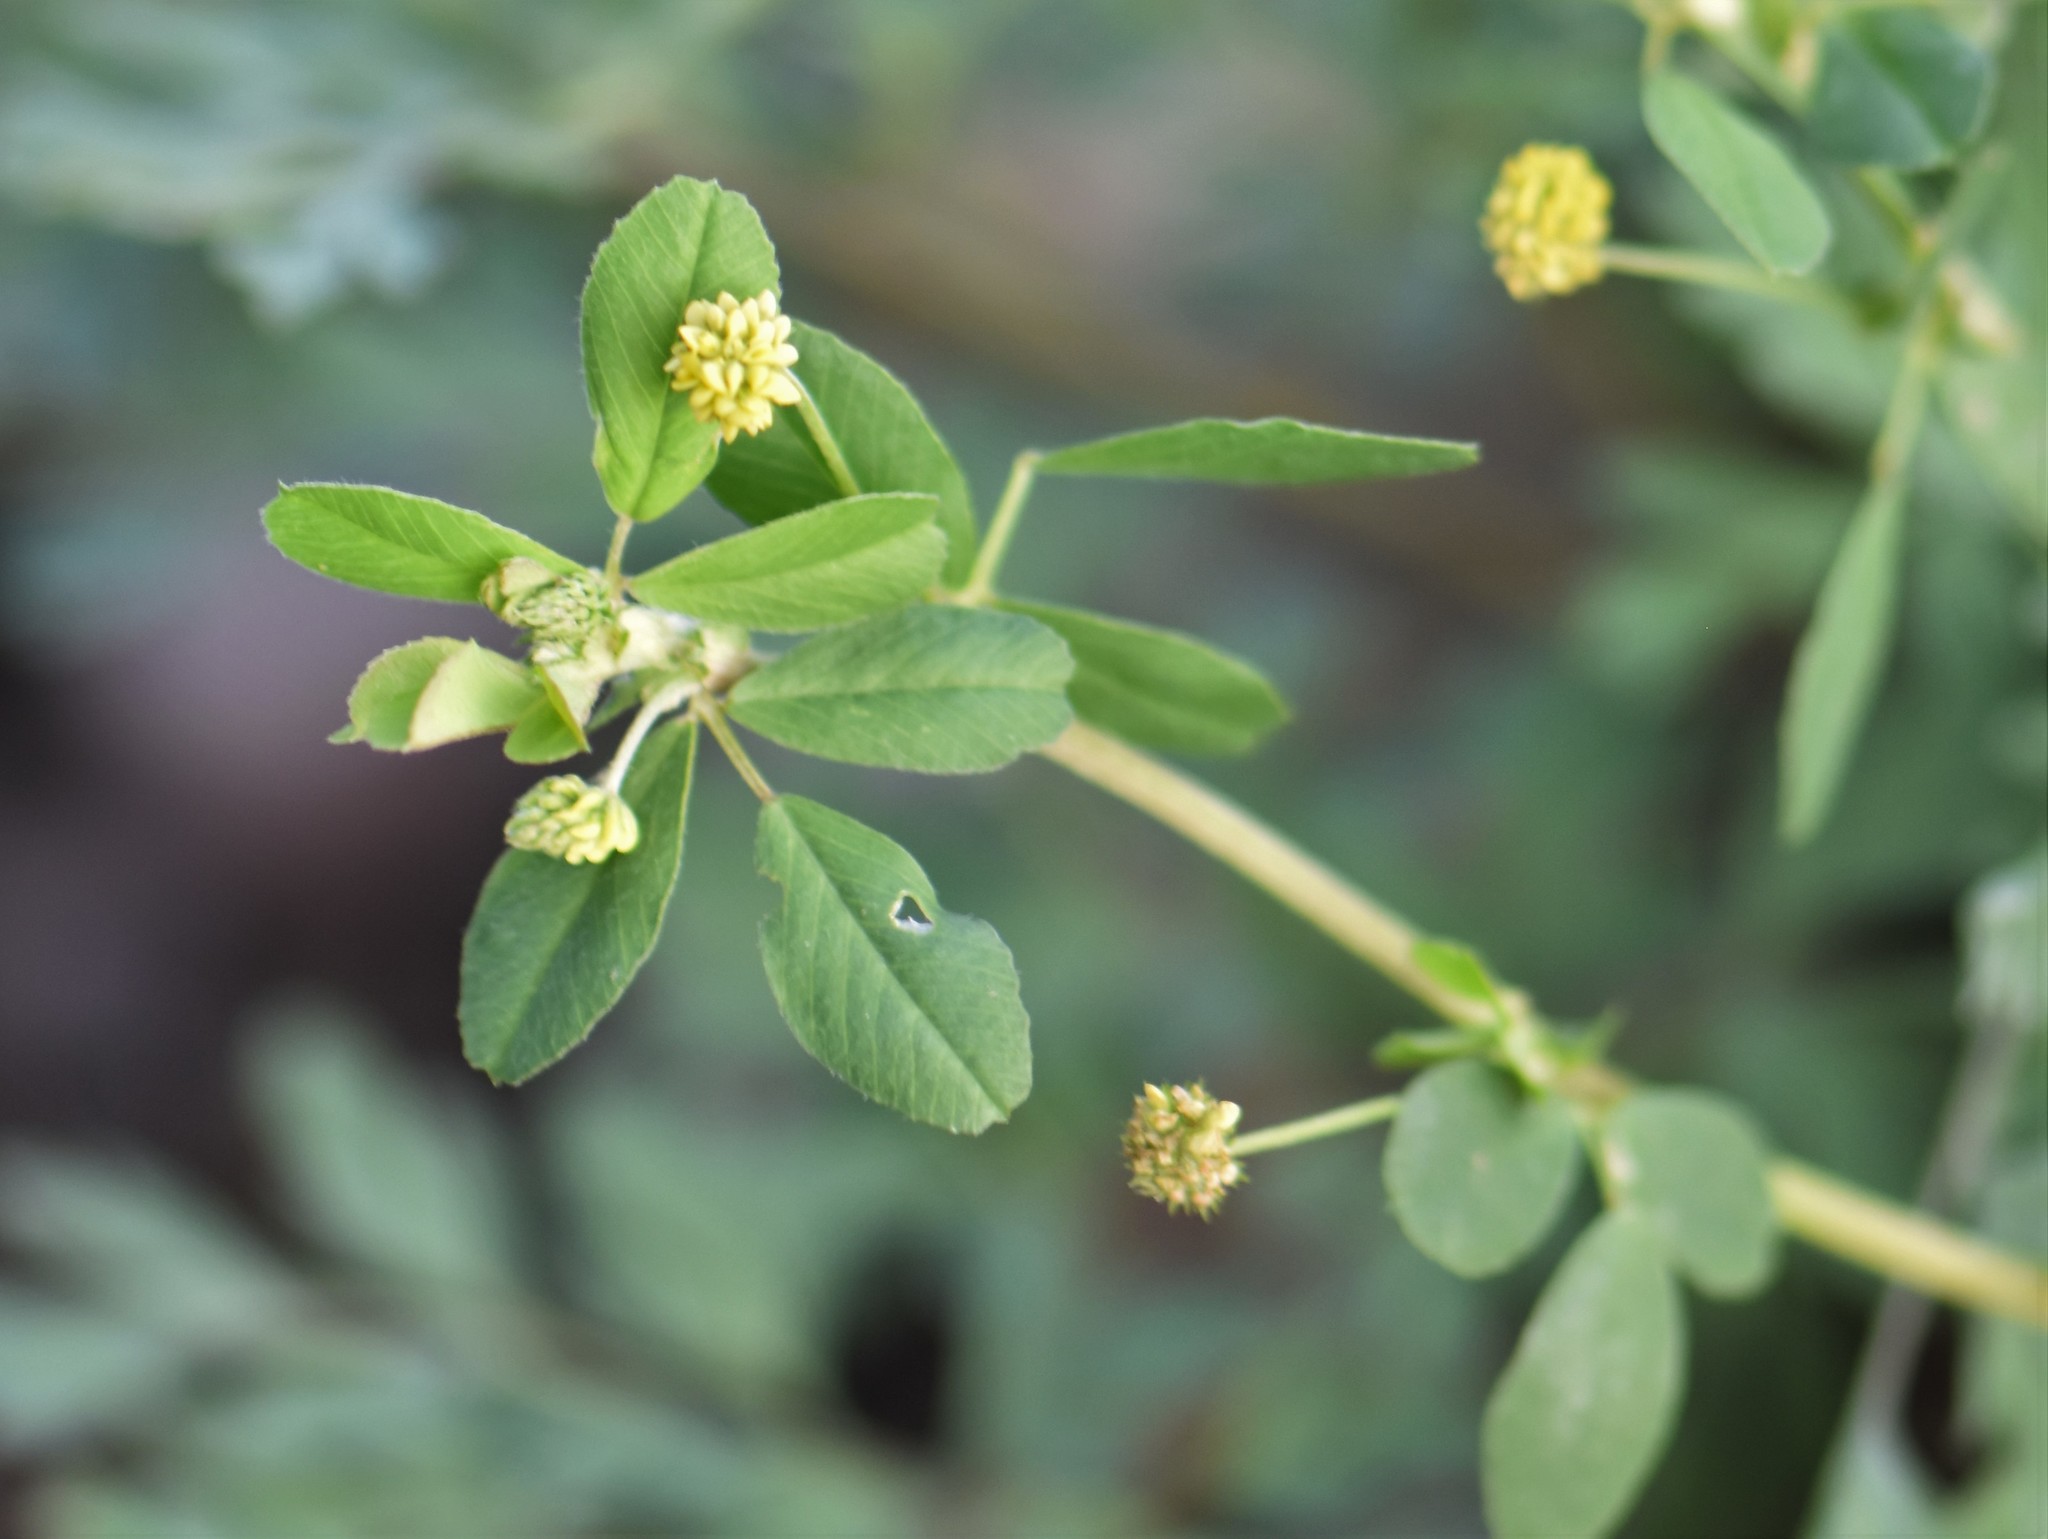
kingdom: Plantae
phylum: Tracheophyta
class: Magnoliopsida
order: Fabales
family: Fabaceae
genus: Medicago
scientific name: Medicago lupulina
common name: Black medick
